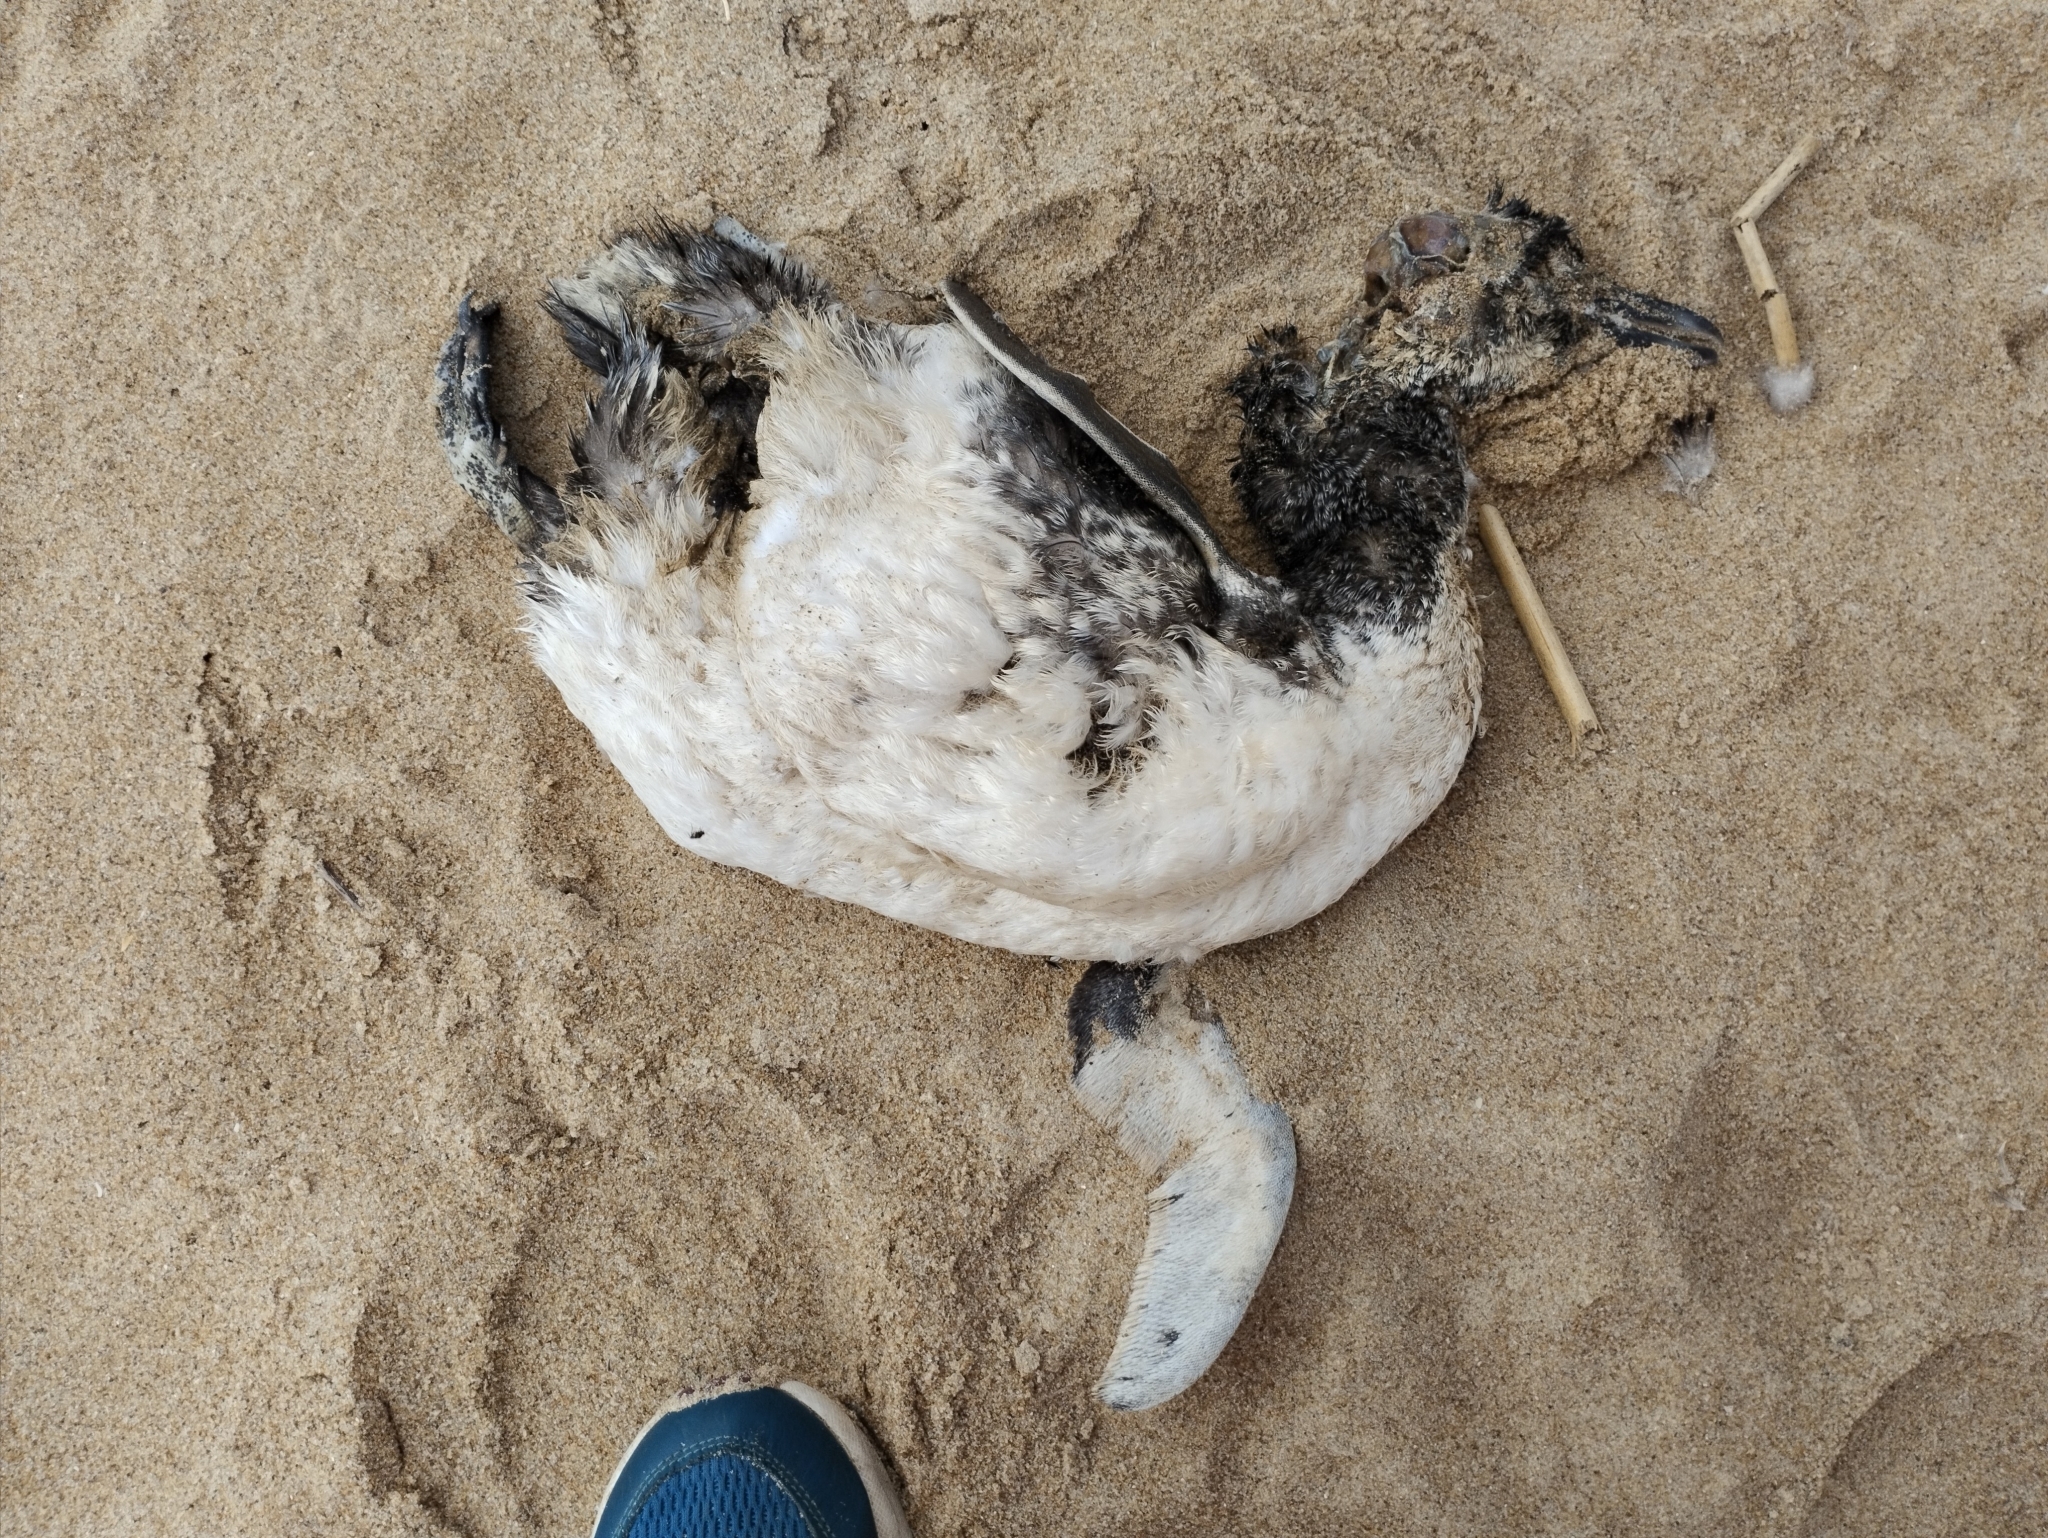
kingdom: Animalia
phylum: Chordata
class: Aves
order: Sphenisciformes
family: Spheniscidae
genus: Spheniscus
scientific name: Spheniscus magellanicus
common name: Magellanic penguin
